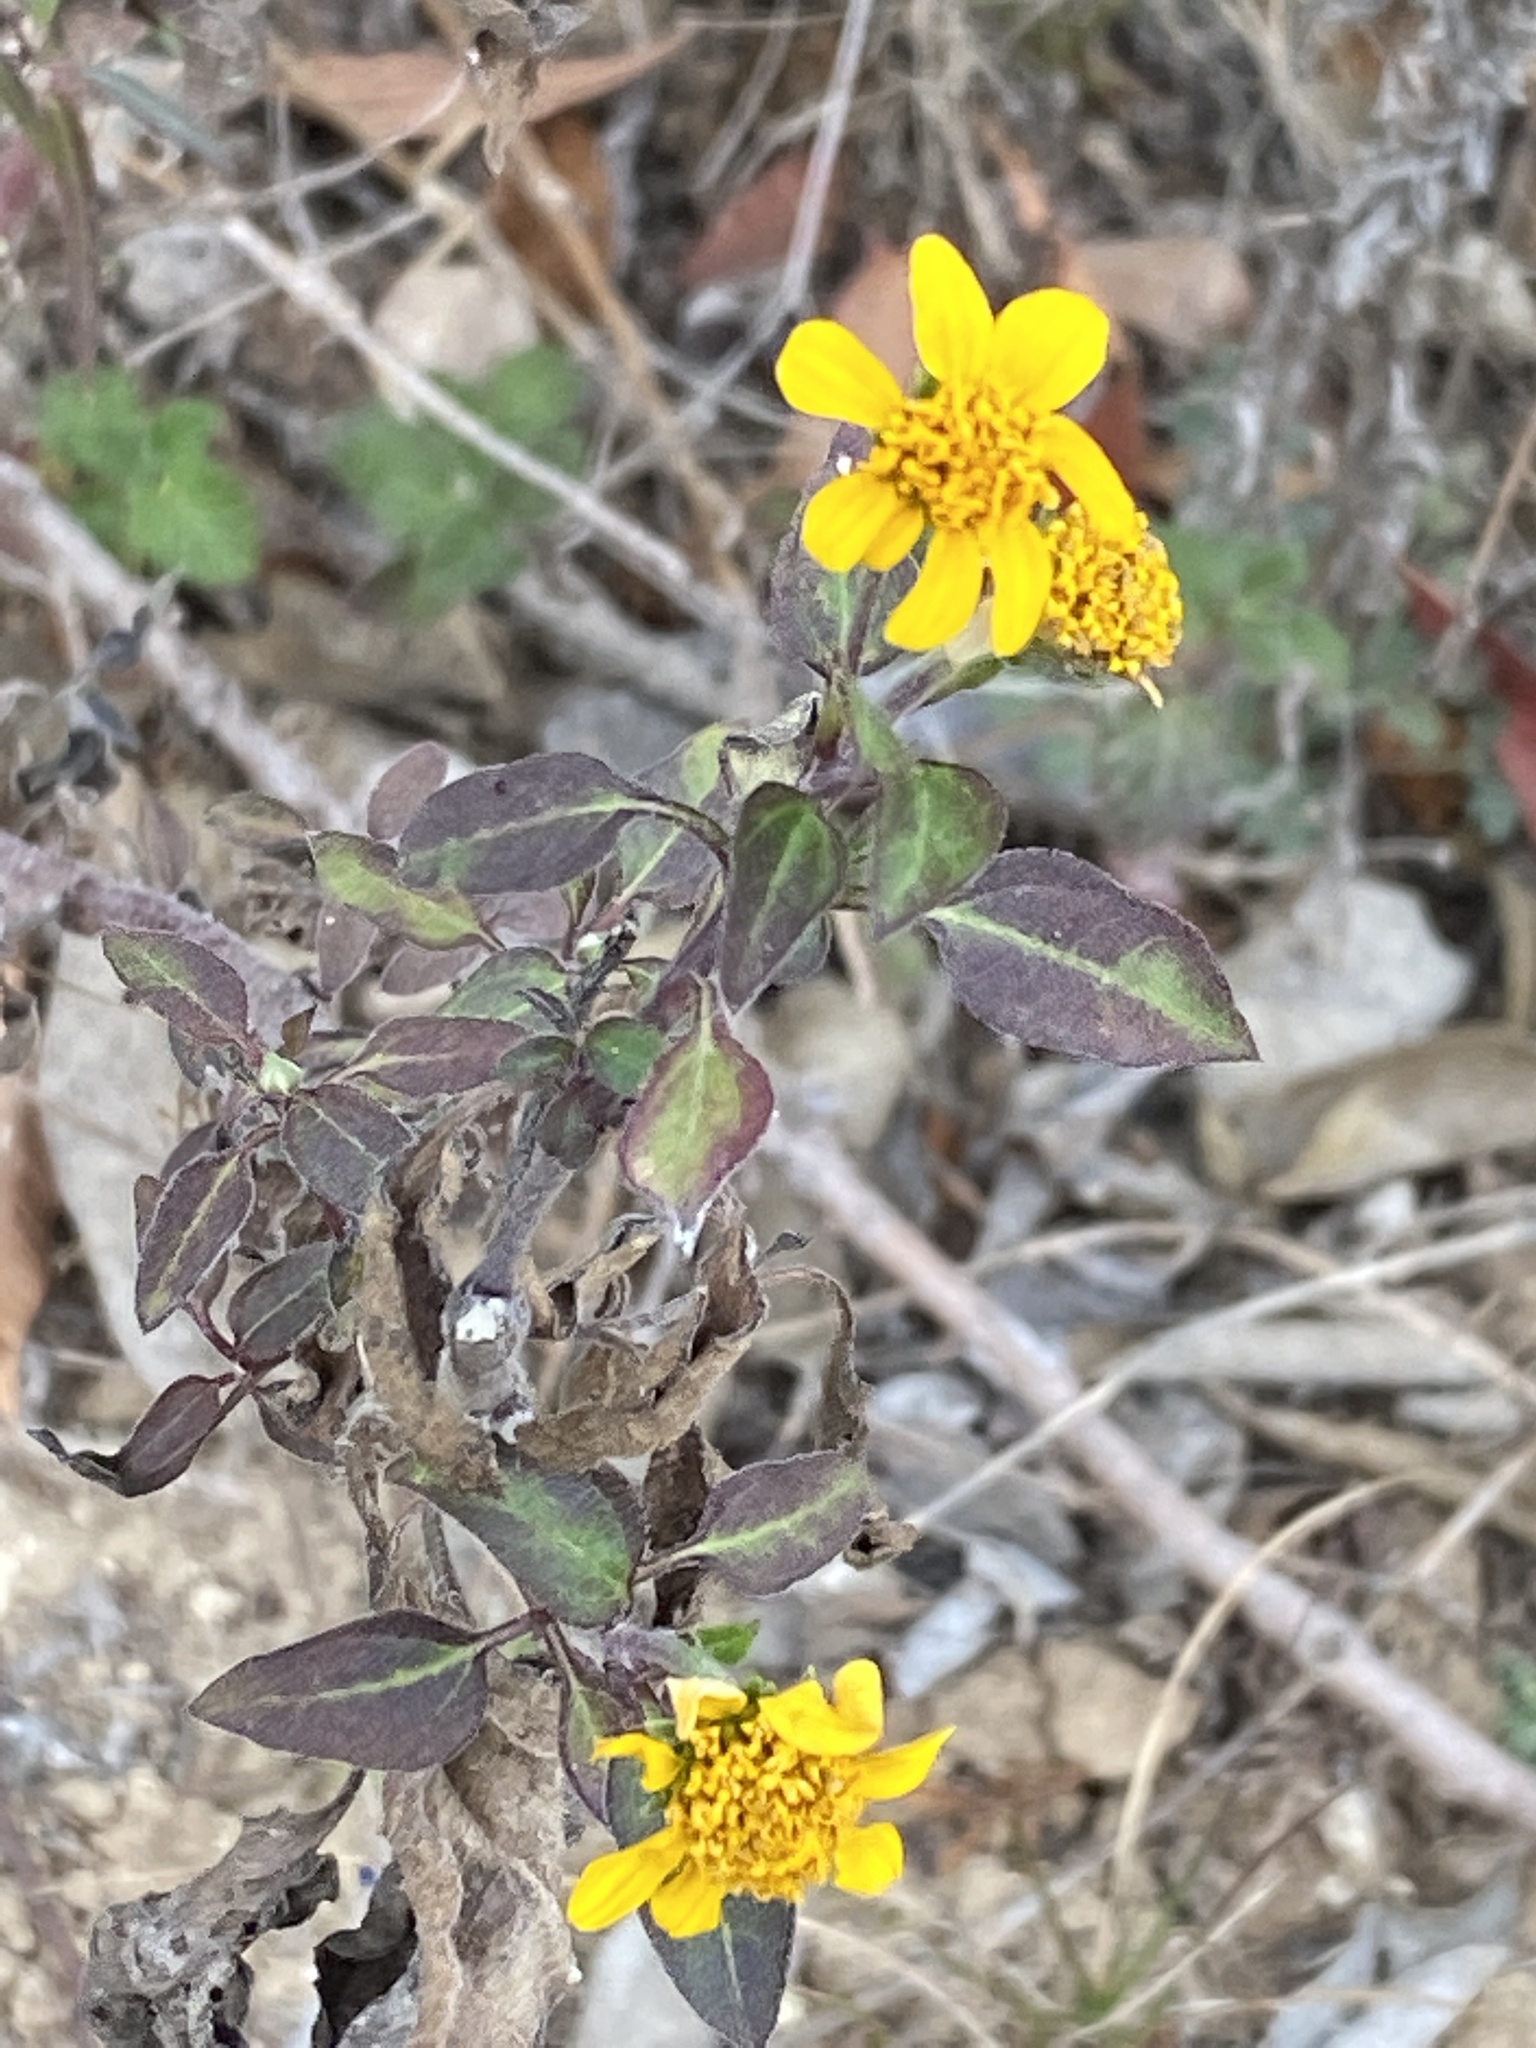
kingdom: Plantae
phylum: Tracheophyta
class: Magnoliopsida
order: Asterales
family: Asteraceae
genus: Viguiera
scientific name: Viguiera dentata
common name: Toothleaf
